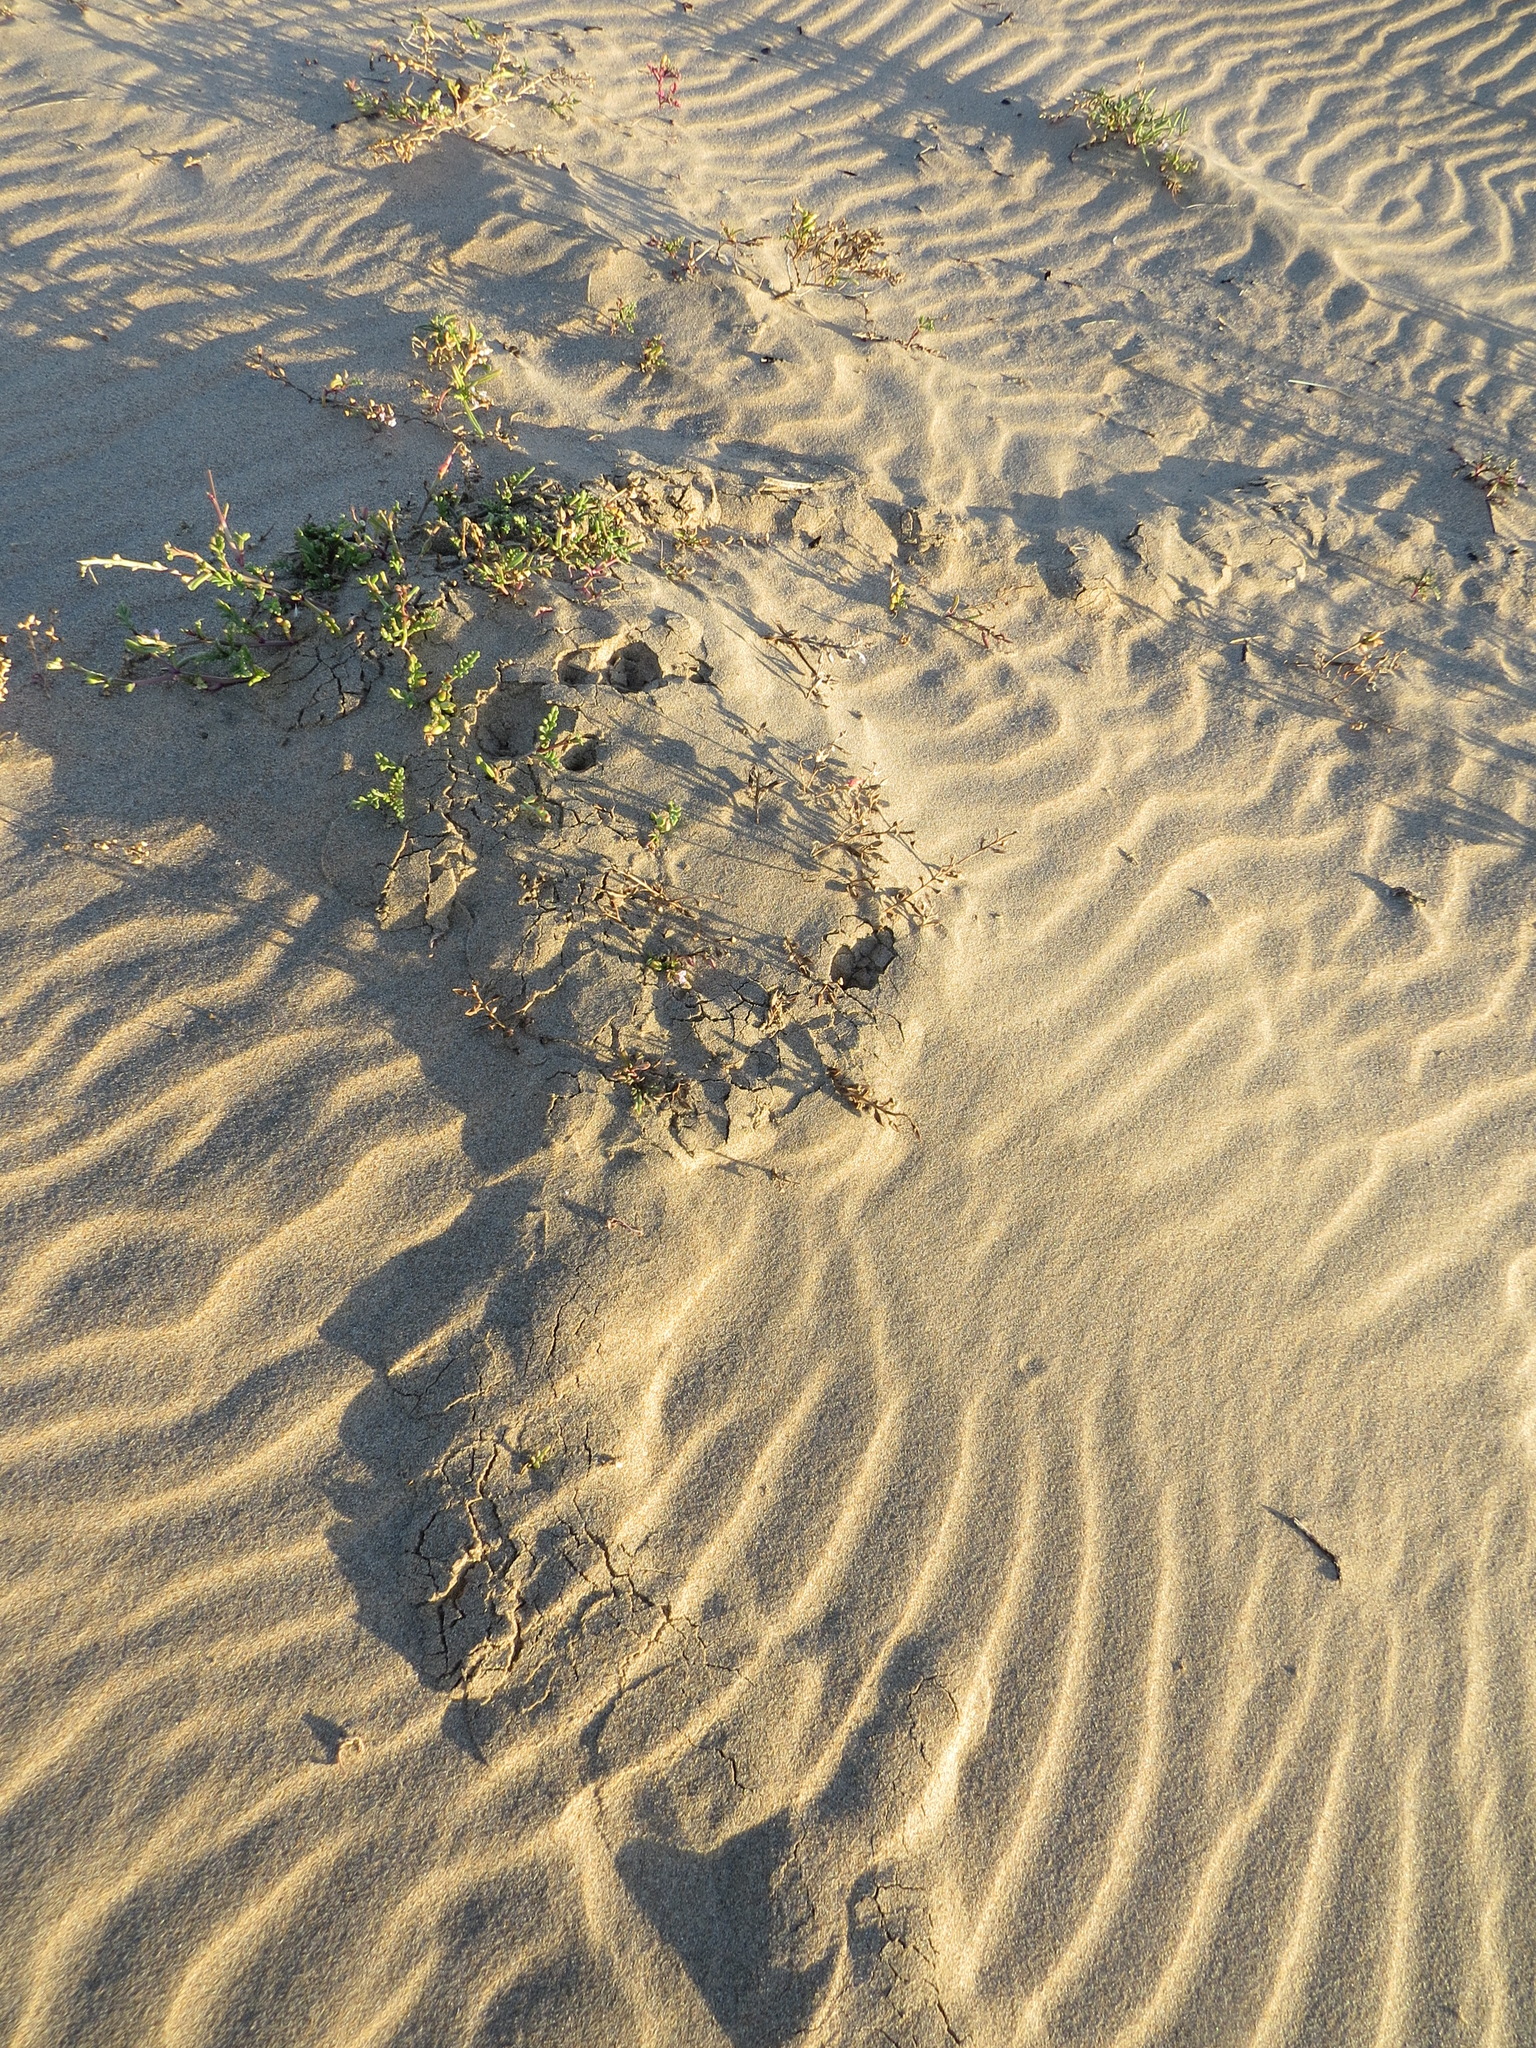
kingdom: Animalia
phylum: Chordata
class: Mammalia
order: Soricomorpha
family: Talpidae
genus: Scapanus
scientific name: Scapanus latimanus
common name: Broad-footed mole
